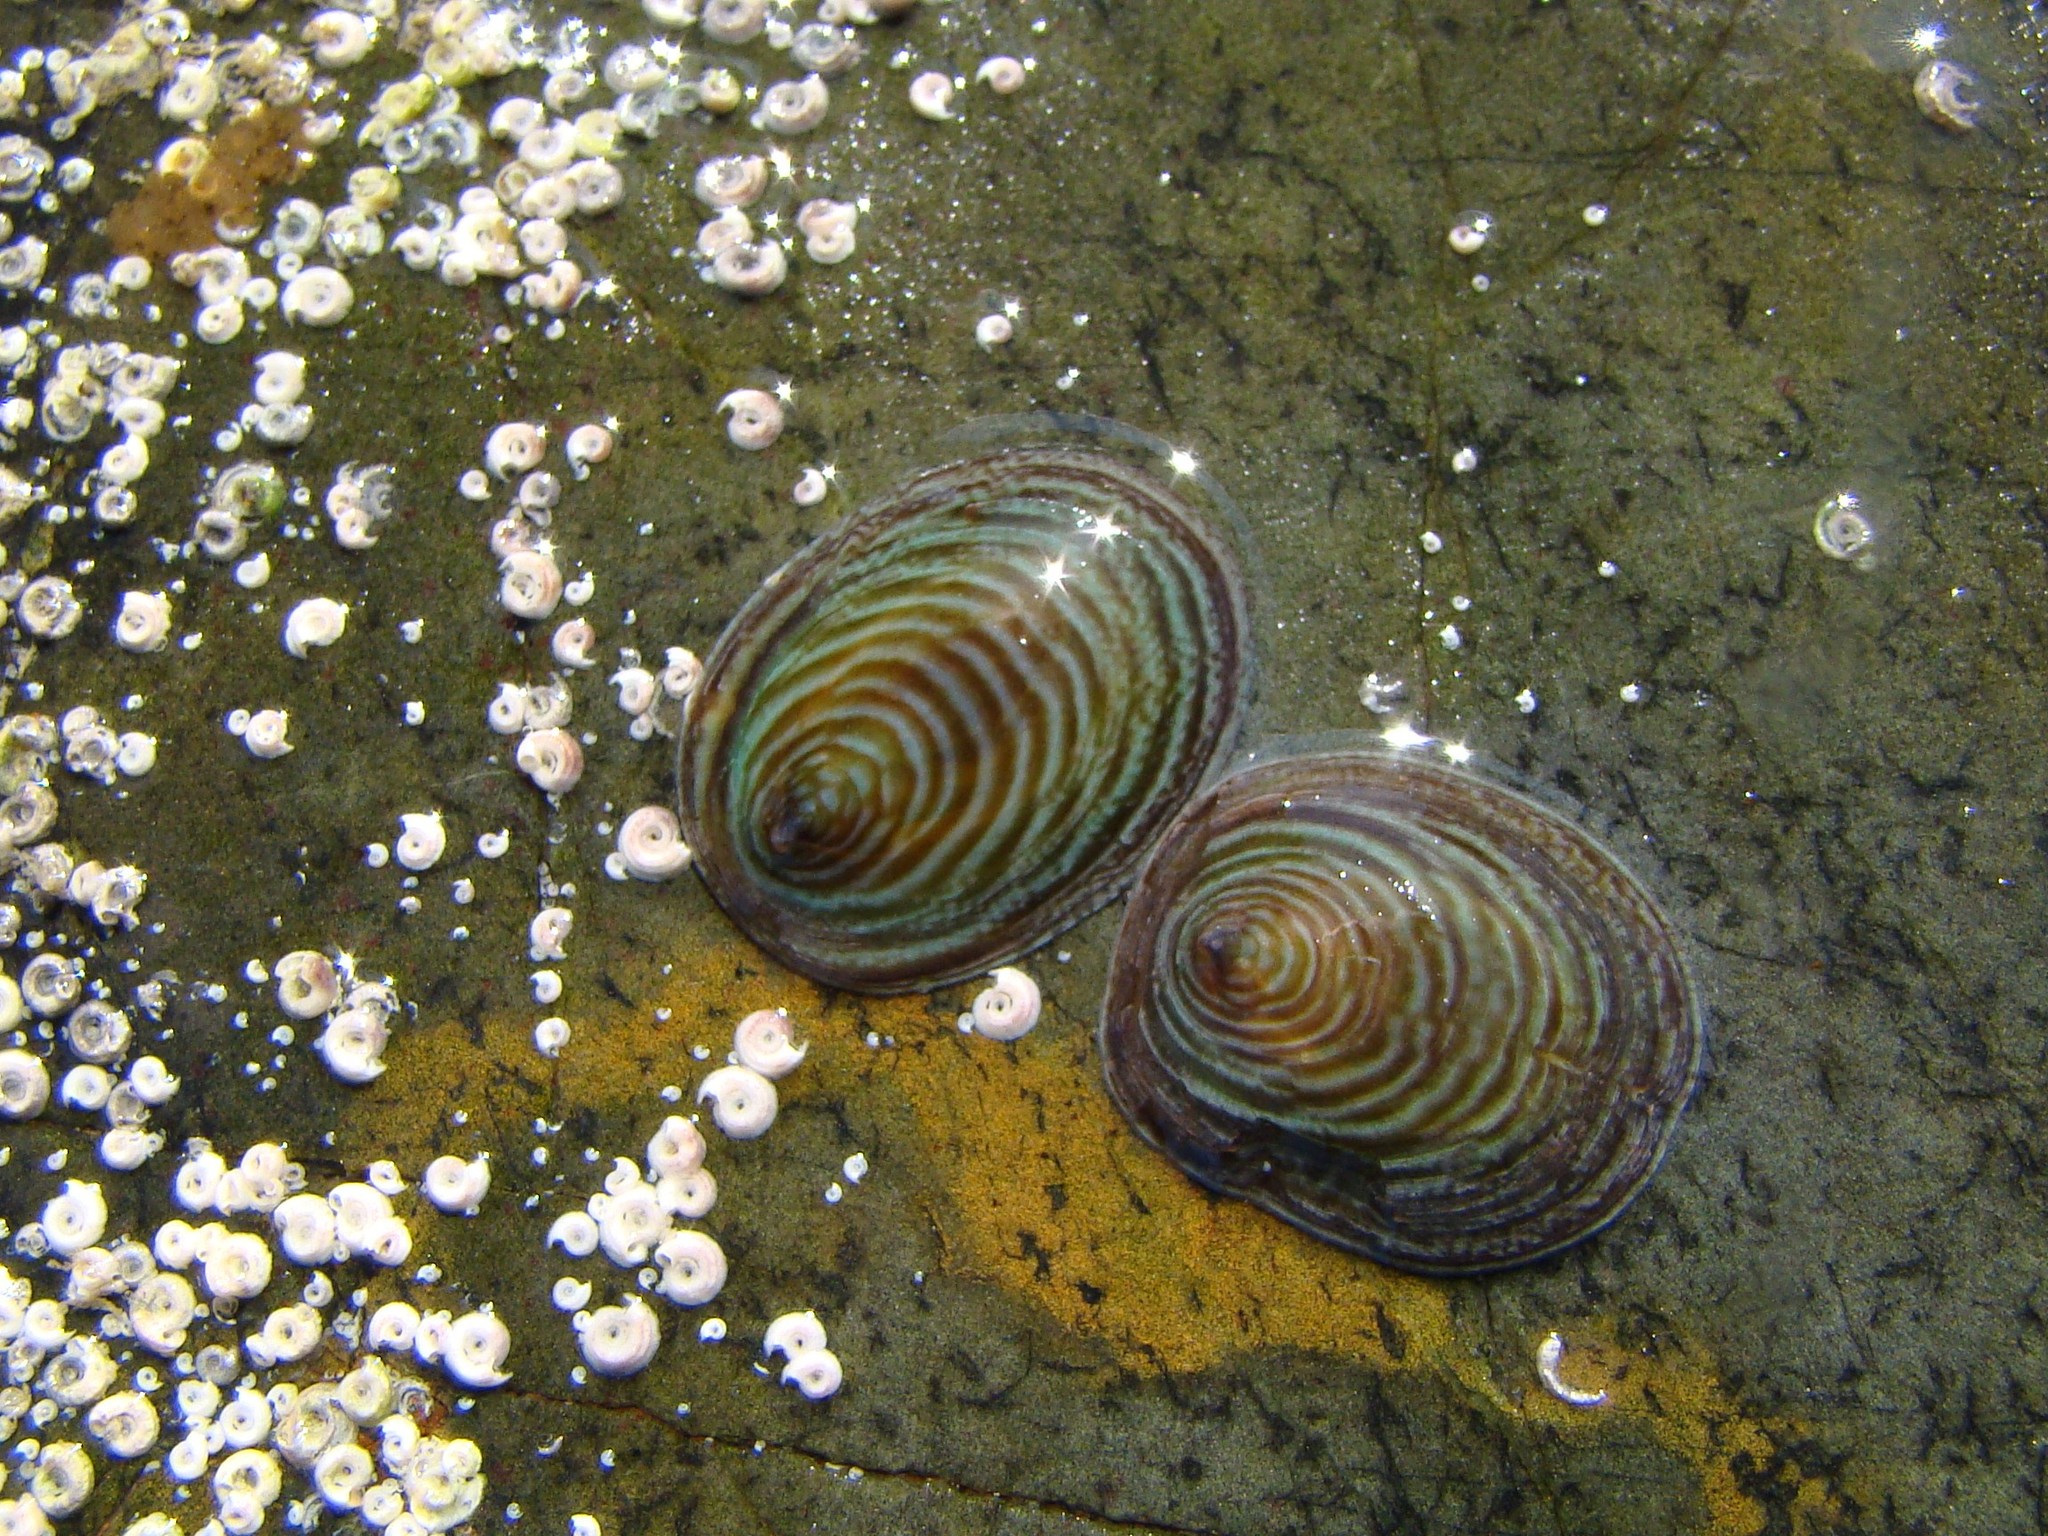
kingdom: Animalia
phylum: Mollusca
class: Gastropoda
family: Lottiidae
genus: Atalacmea
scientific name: Atalacmea fragilis
